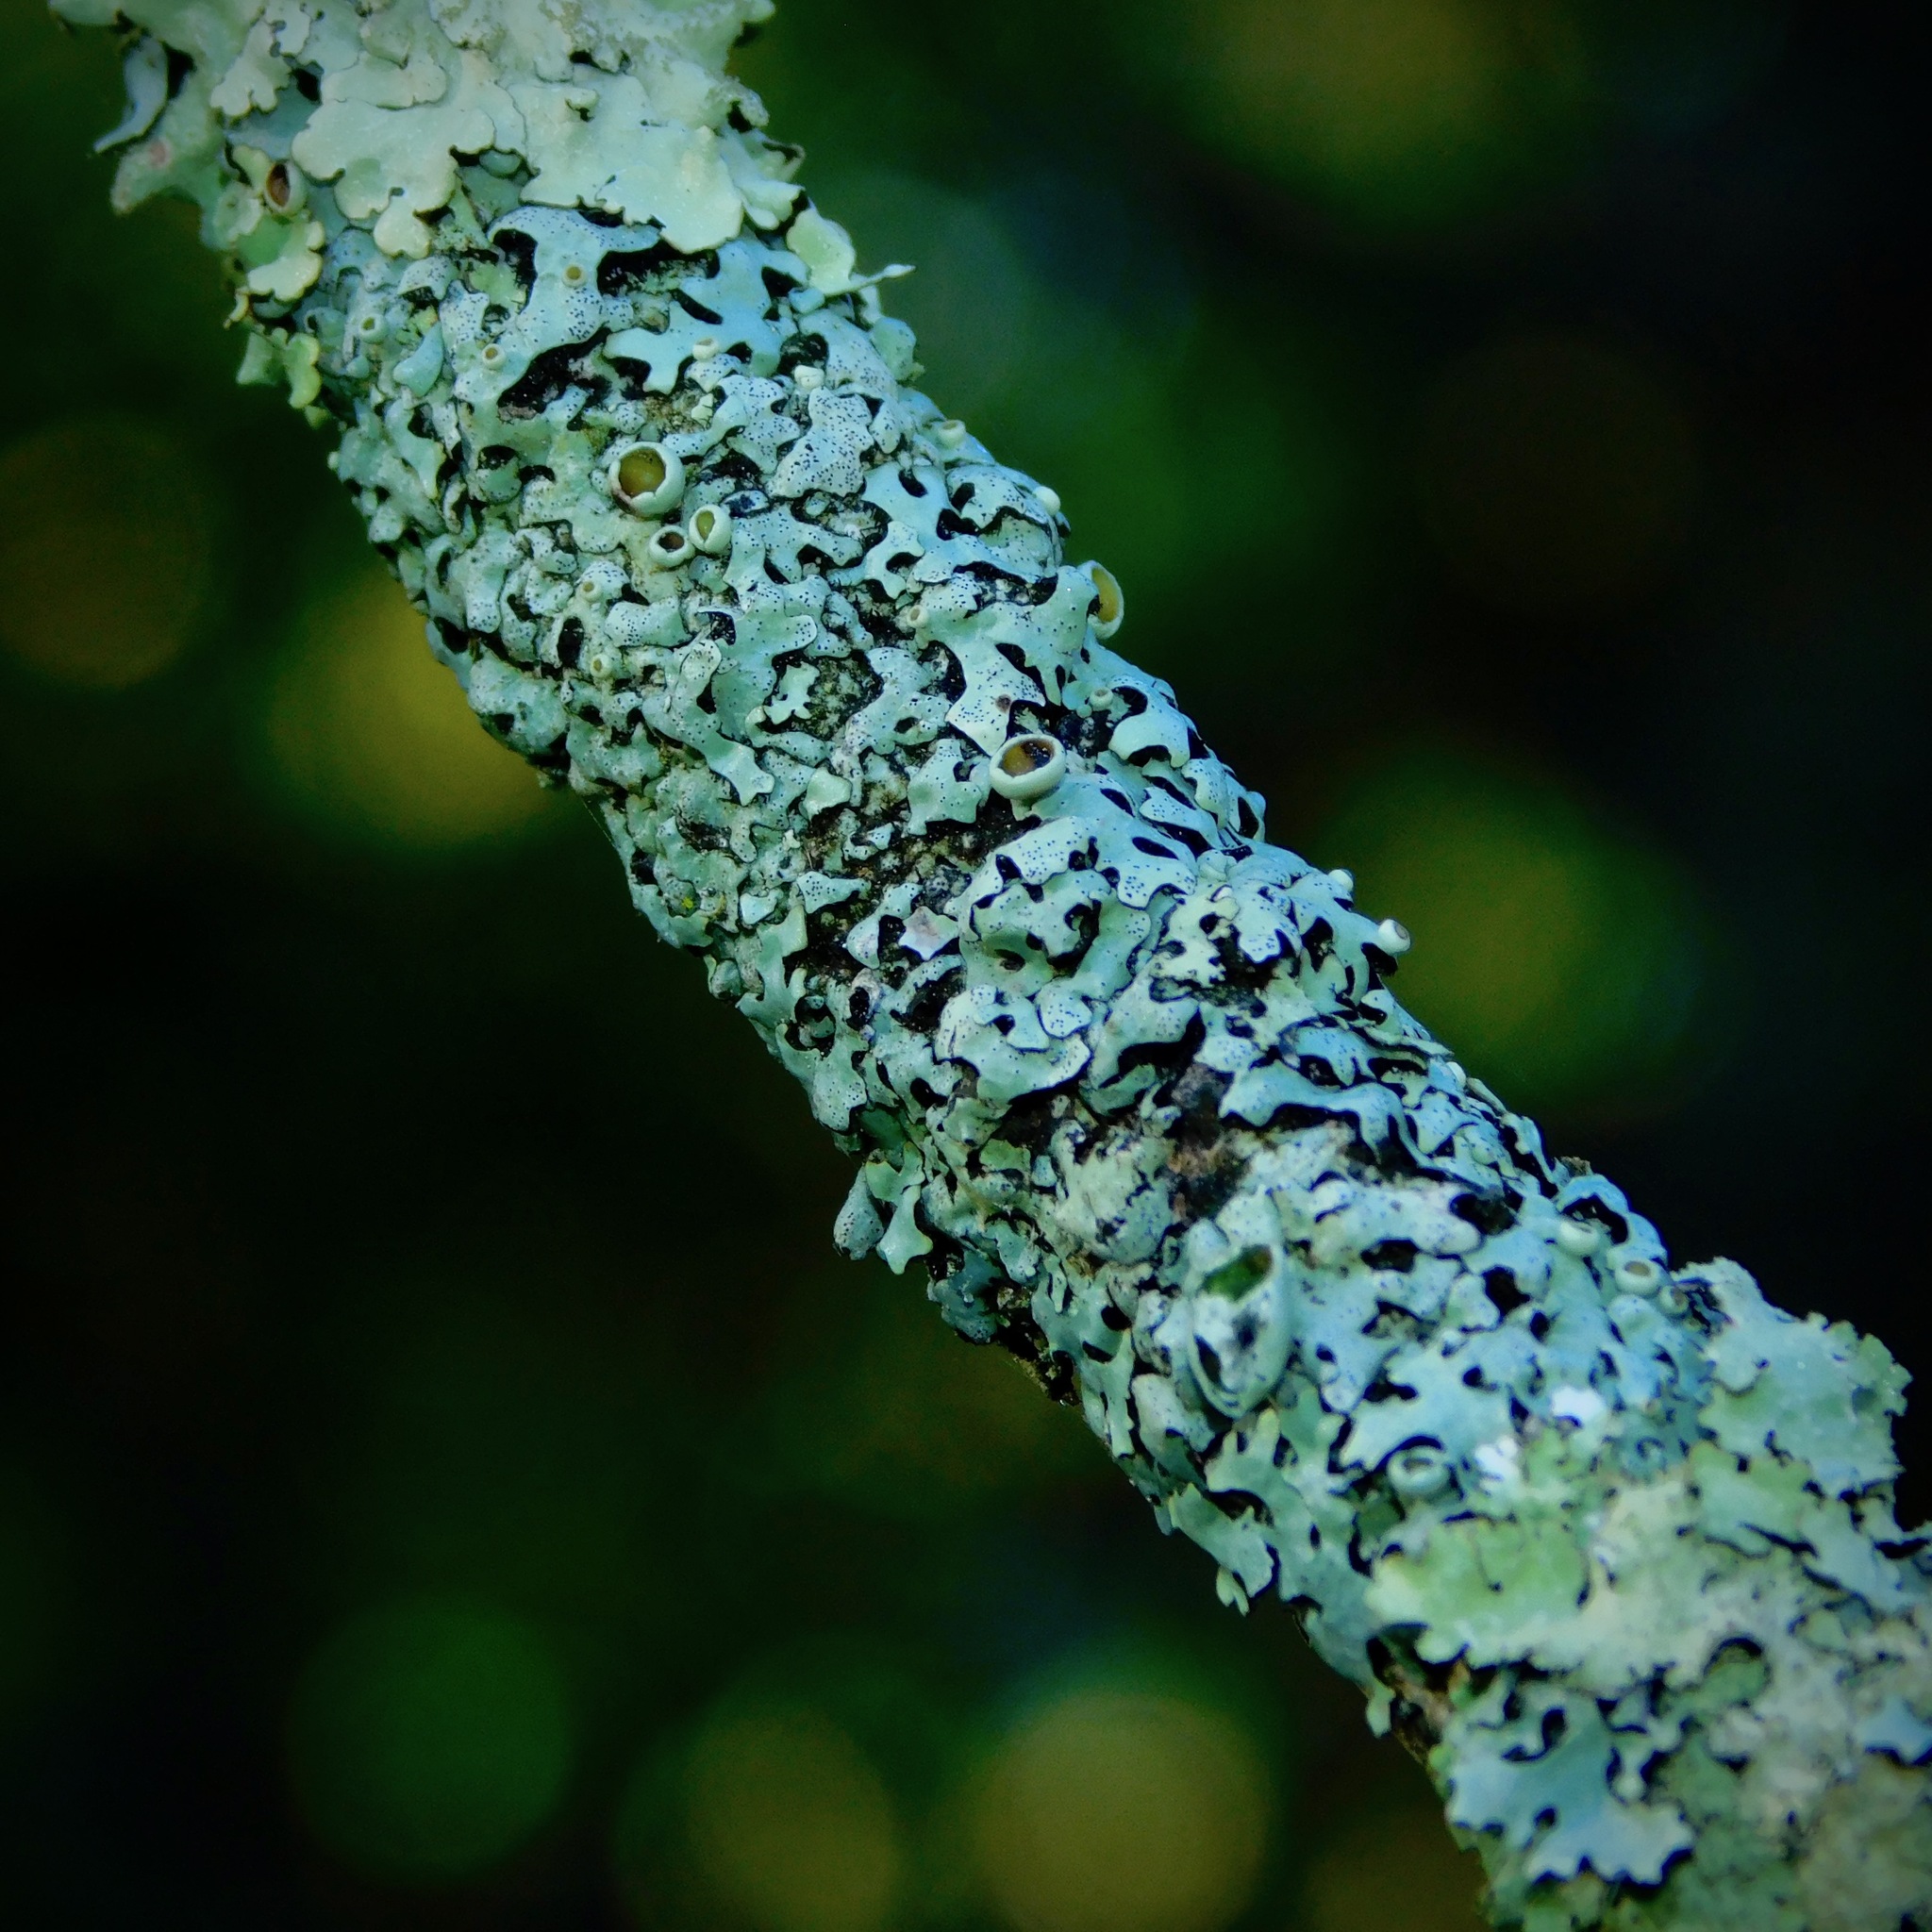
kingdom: Fungi
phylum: Ascomycota
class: Lecanoromycetes
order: Lecanorales
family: Parmeliaceae
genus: Hypotrachyna
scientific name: Hypotrachyna livida
